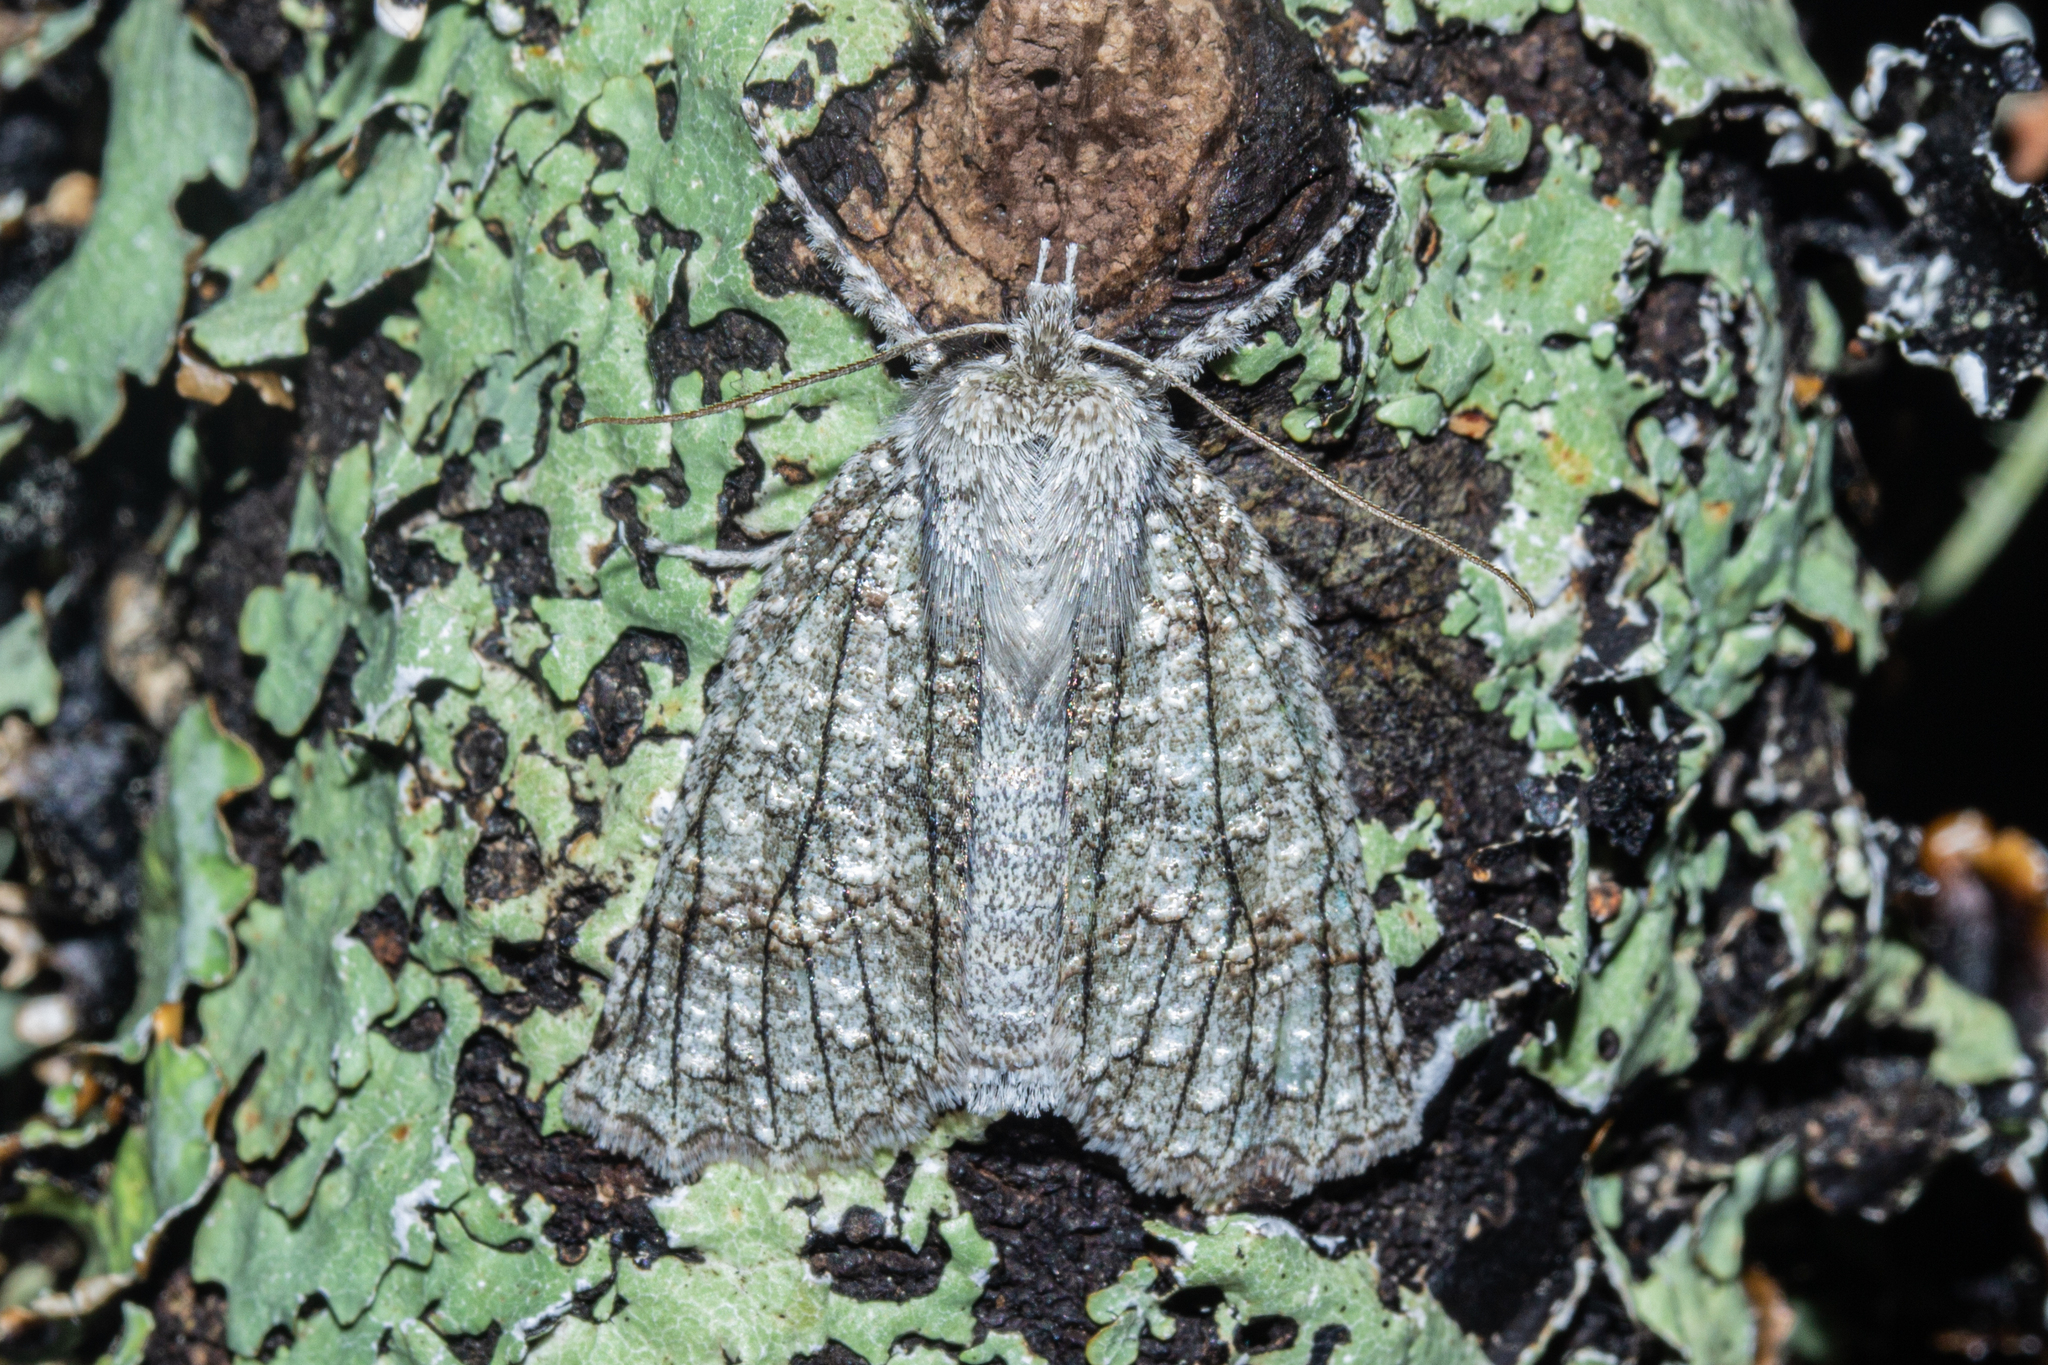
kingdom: Animalia
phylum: Arthropoda
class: Insecta
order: Lepidoptera
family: Geometridae
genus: Declana
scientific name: Declana floccosa
